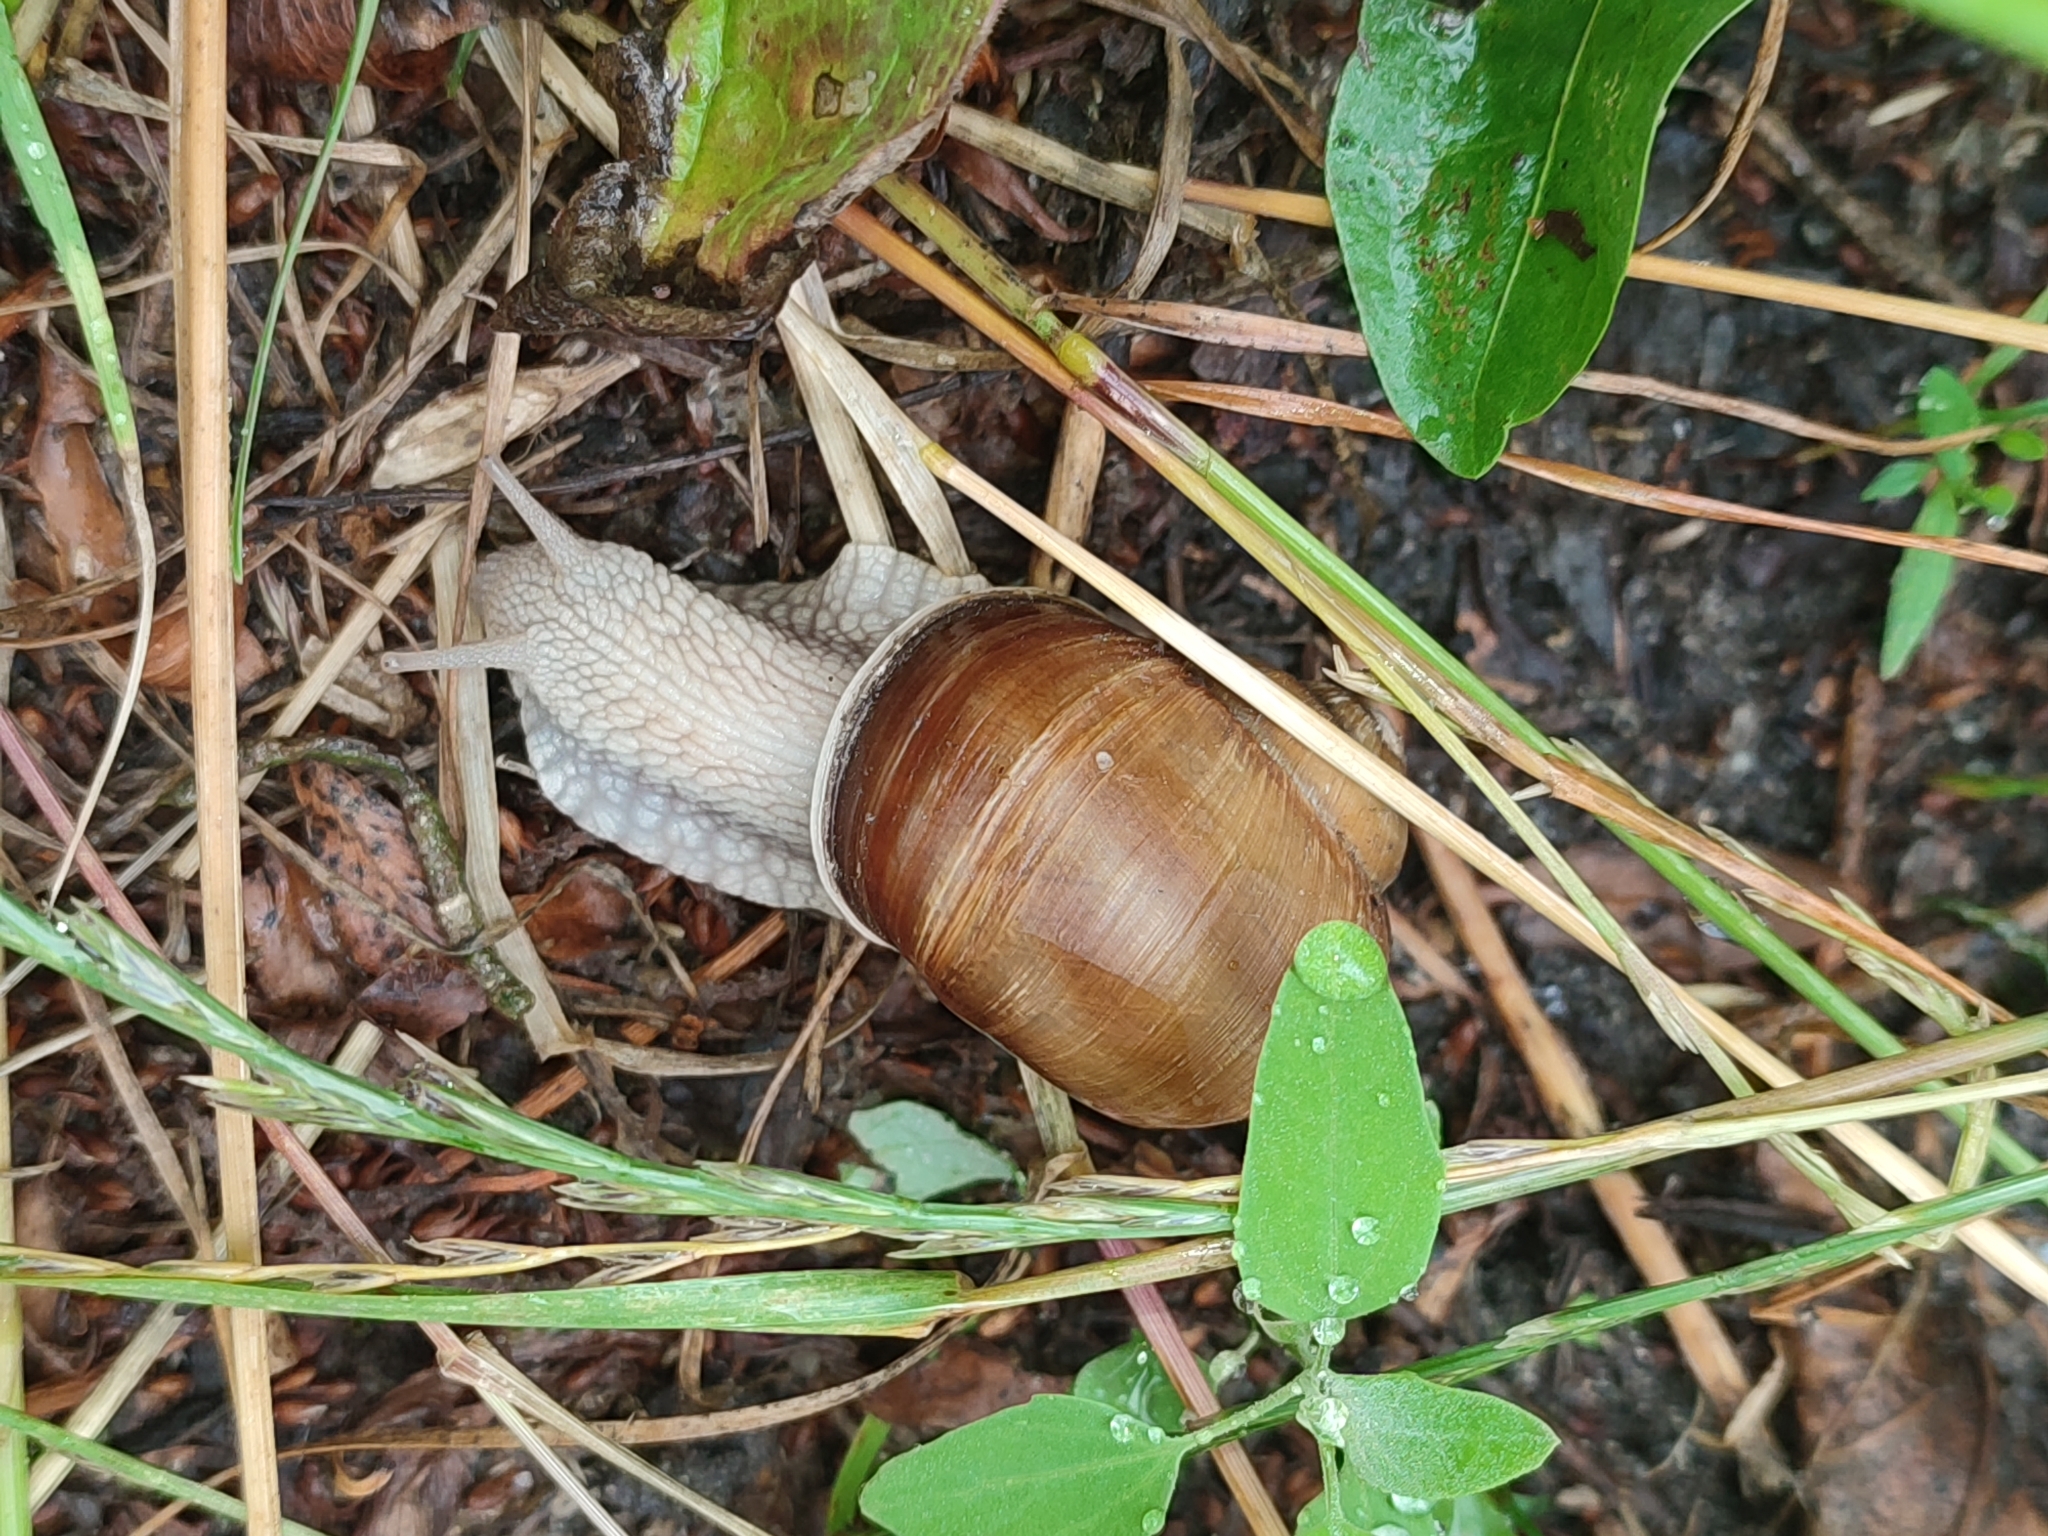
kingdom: Animalia
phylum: Mollusca
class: Gastropoda
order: Stylommatophora
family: Helicidae
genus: Helix
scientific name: Helix pomatia
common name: Roman snail
